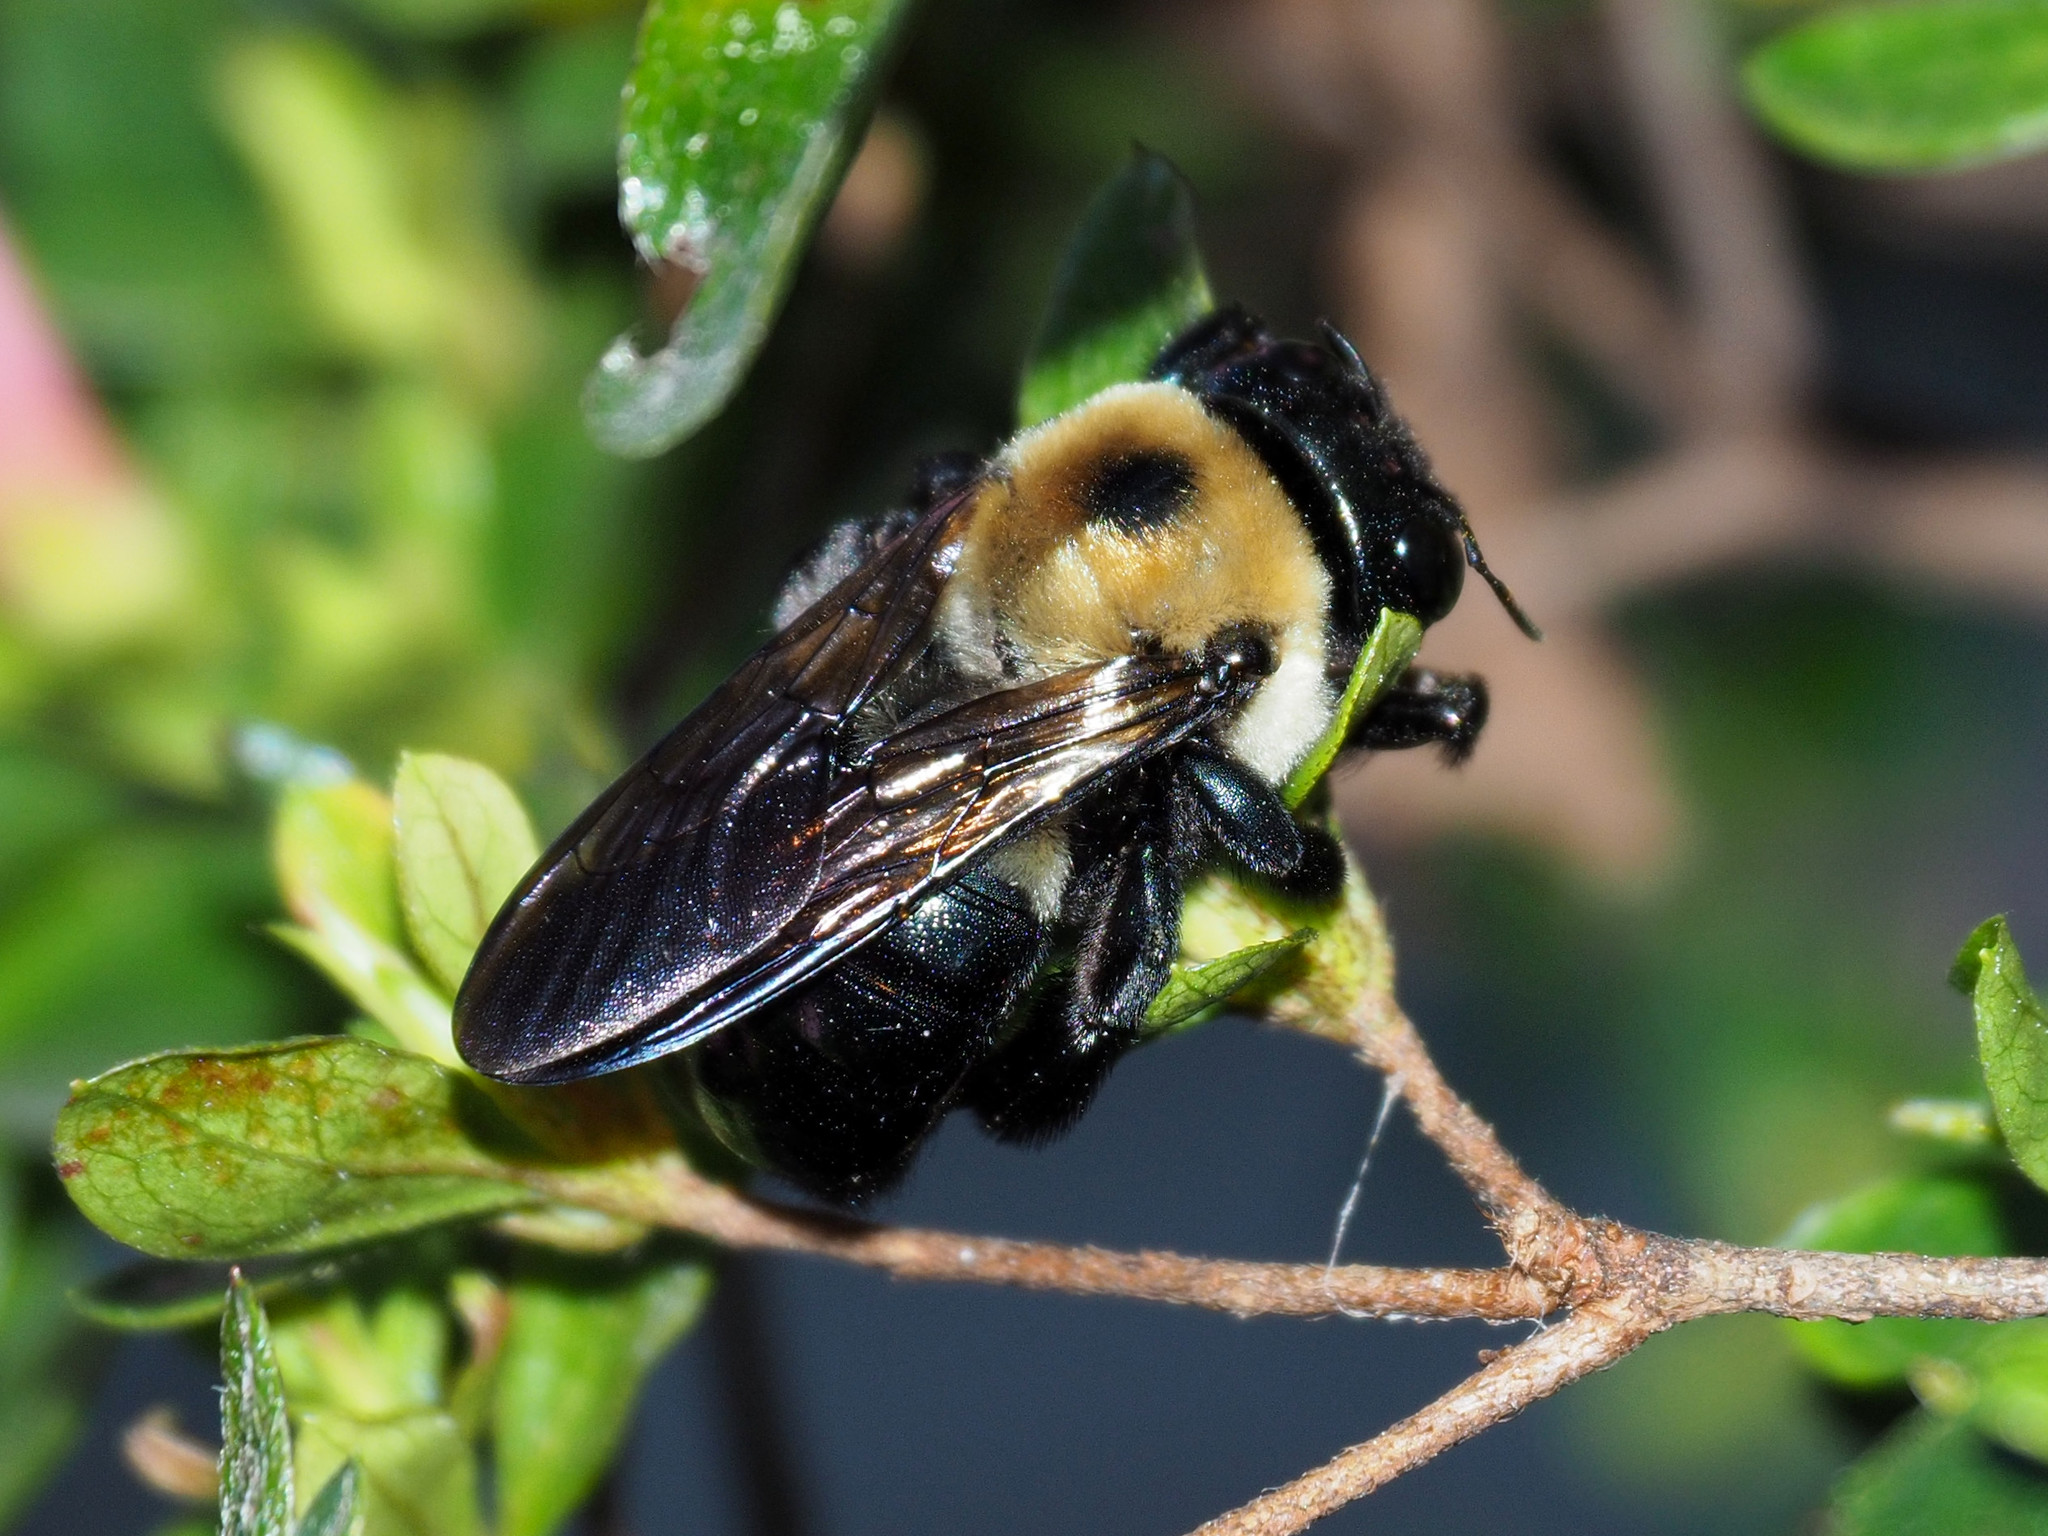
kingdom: Animalia
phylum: Arthropoda
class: Insecta
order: Hymenoptera
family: Apidae
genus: Xylocopa
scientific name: Xylocopa virginica
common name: Carpenter bee
